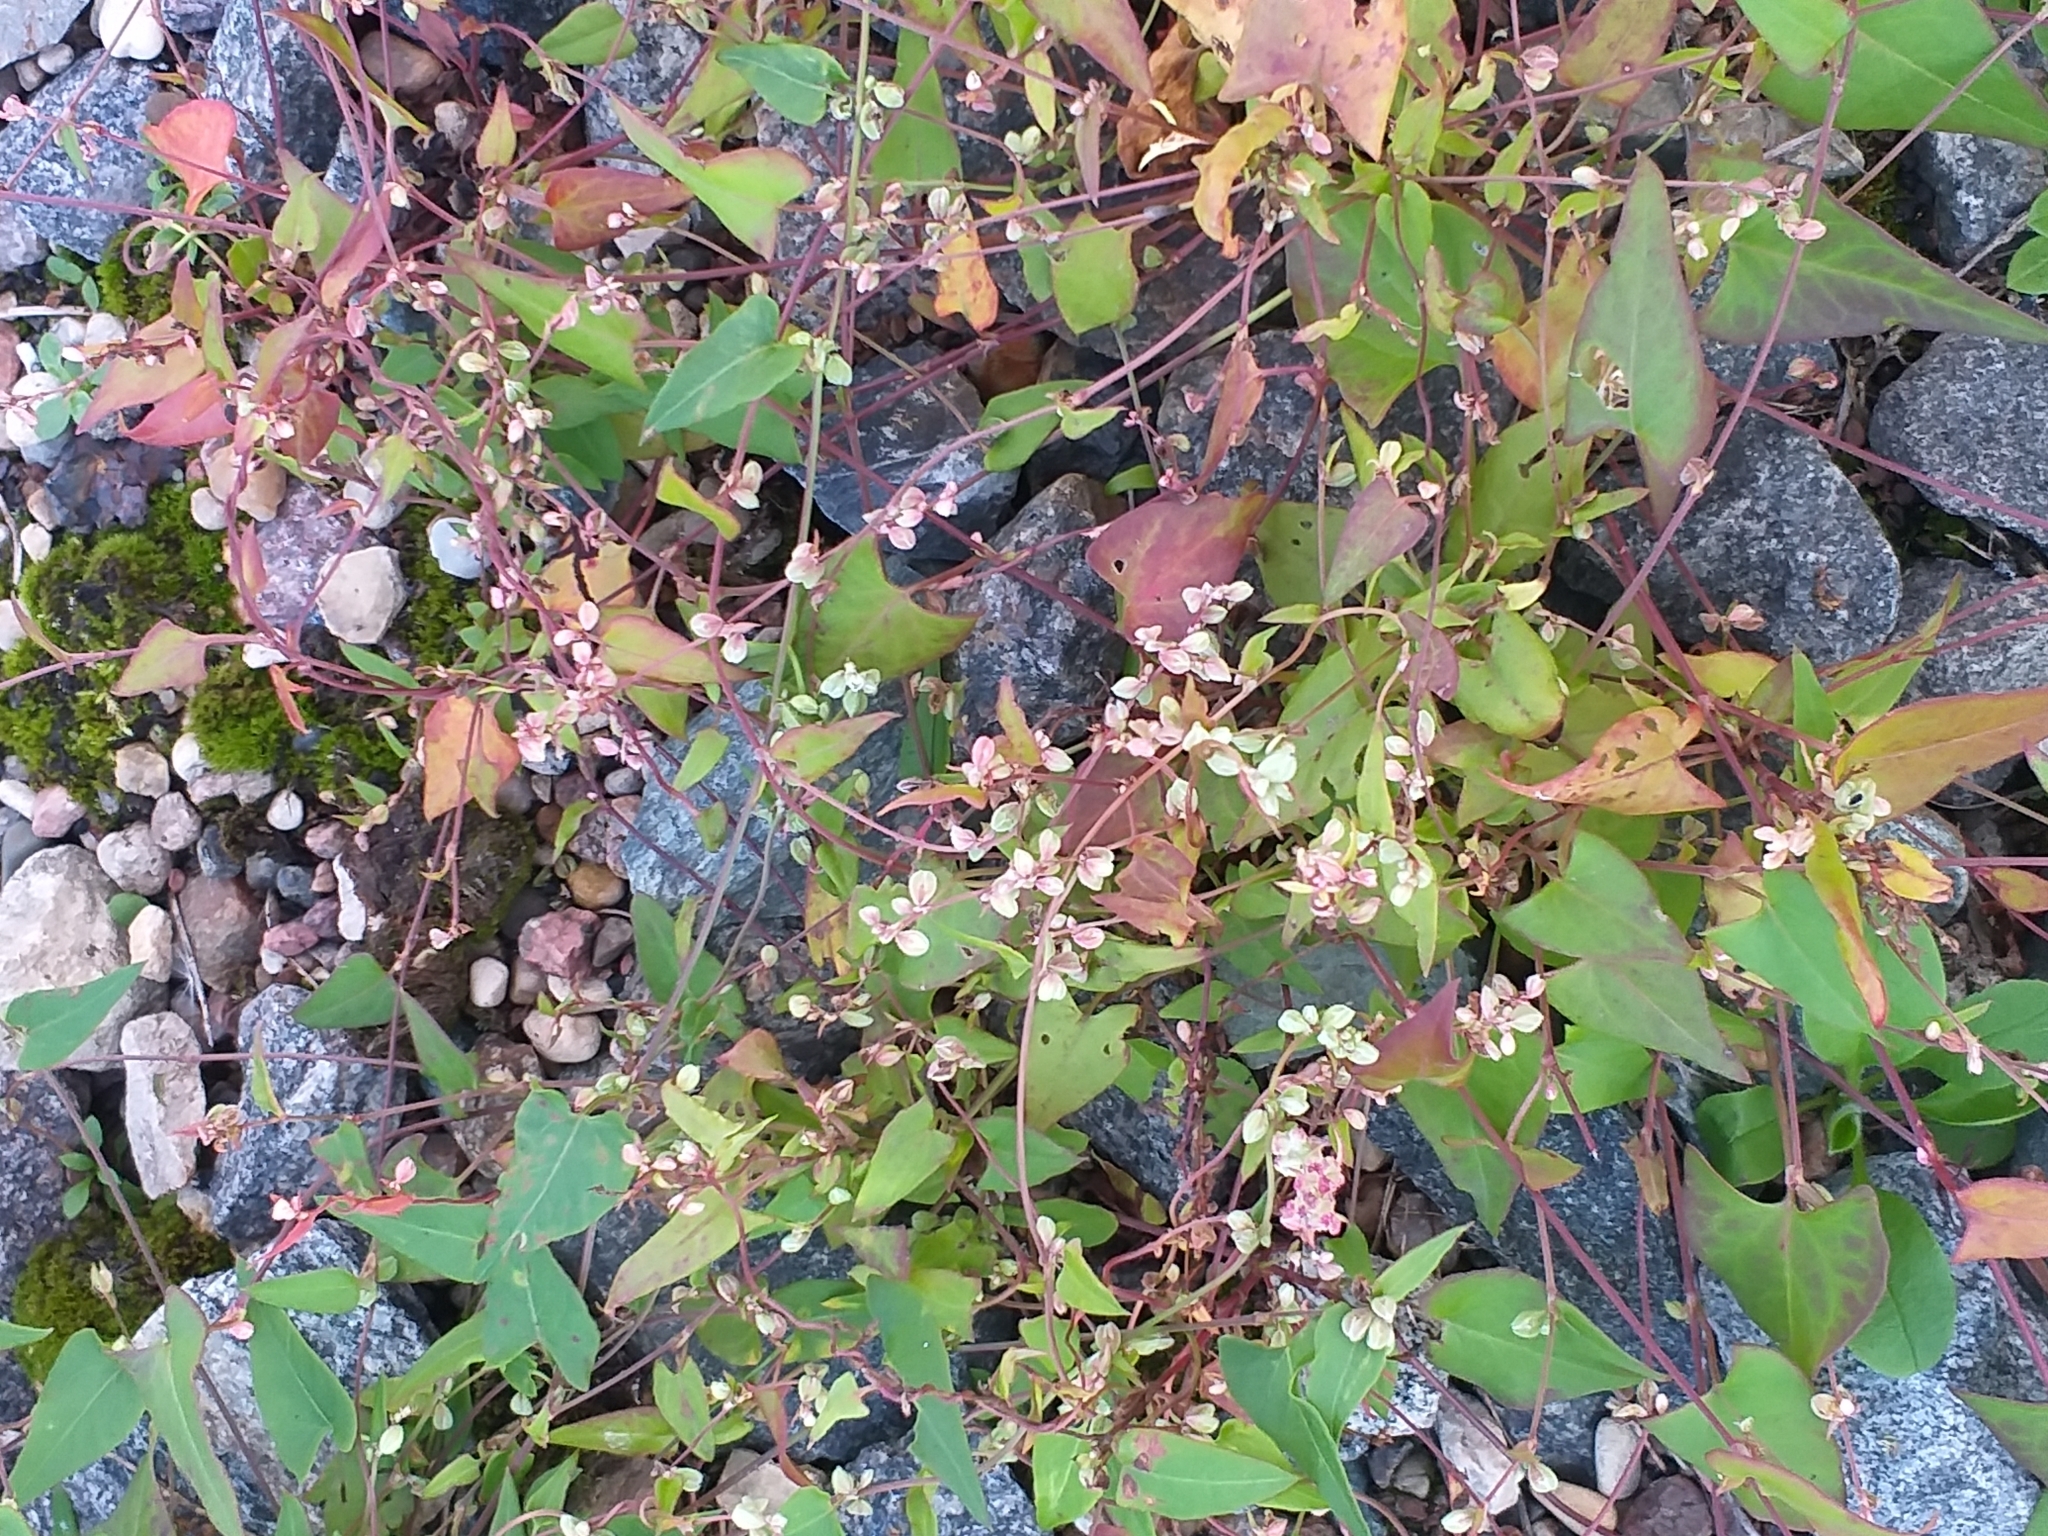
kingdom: Plantae
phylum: Tracheophyta
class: Magnoliopsida
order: Caryophyllales
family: Polygonaceae
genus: Fallopia
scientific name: Fallopia convolvulus
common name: Black bindweed
